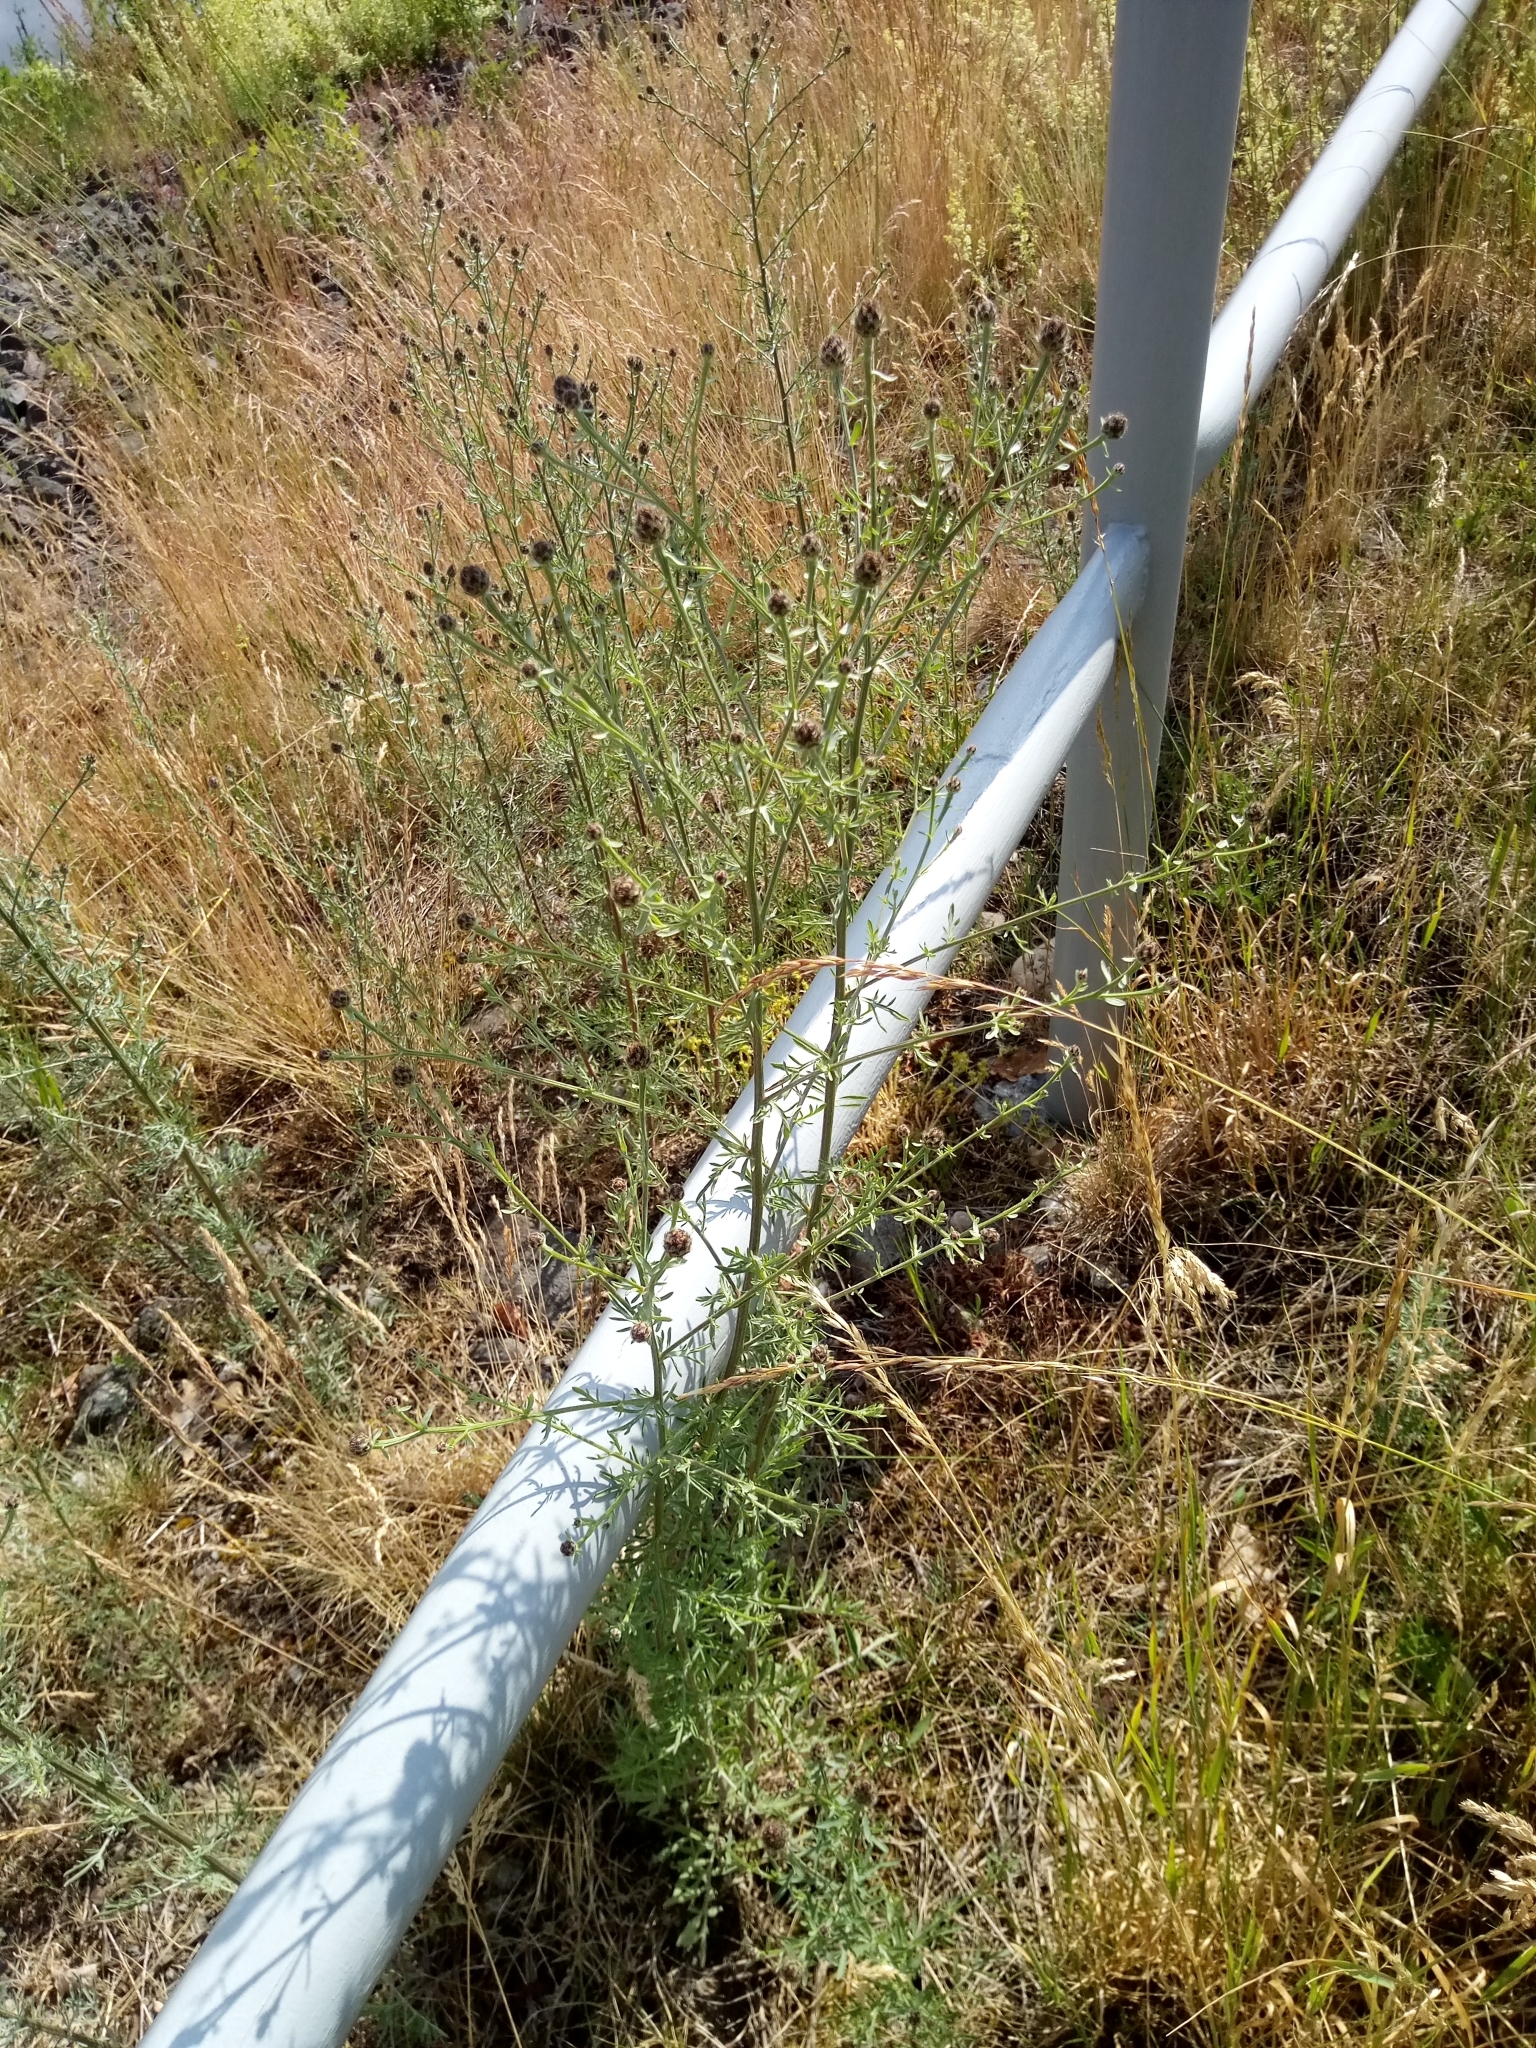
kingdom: Plantae
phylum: Tracheophyta
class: Magnoliopsida
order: Asterales
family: Asteraceae
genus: Centaurea
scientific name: Centaurea stoebe
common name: Spotted knapweed
